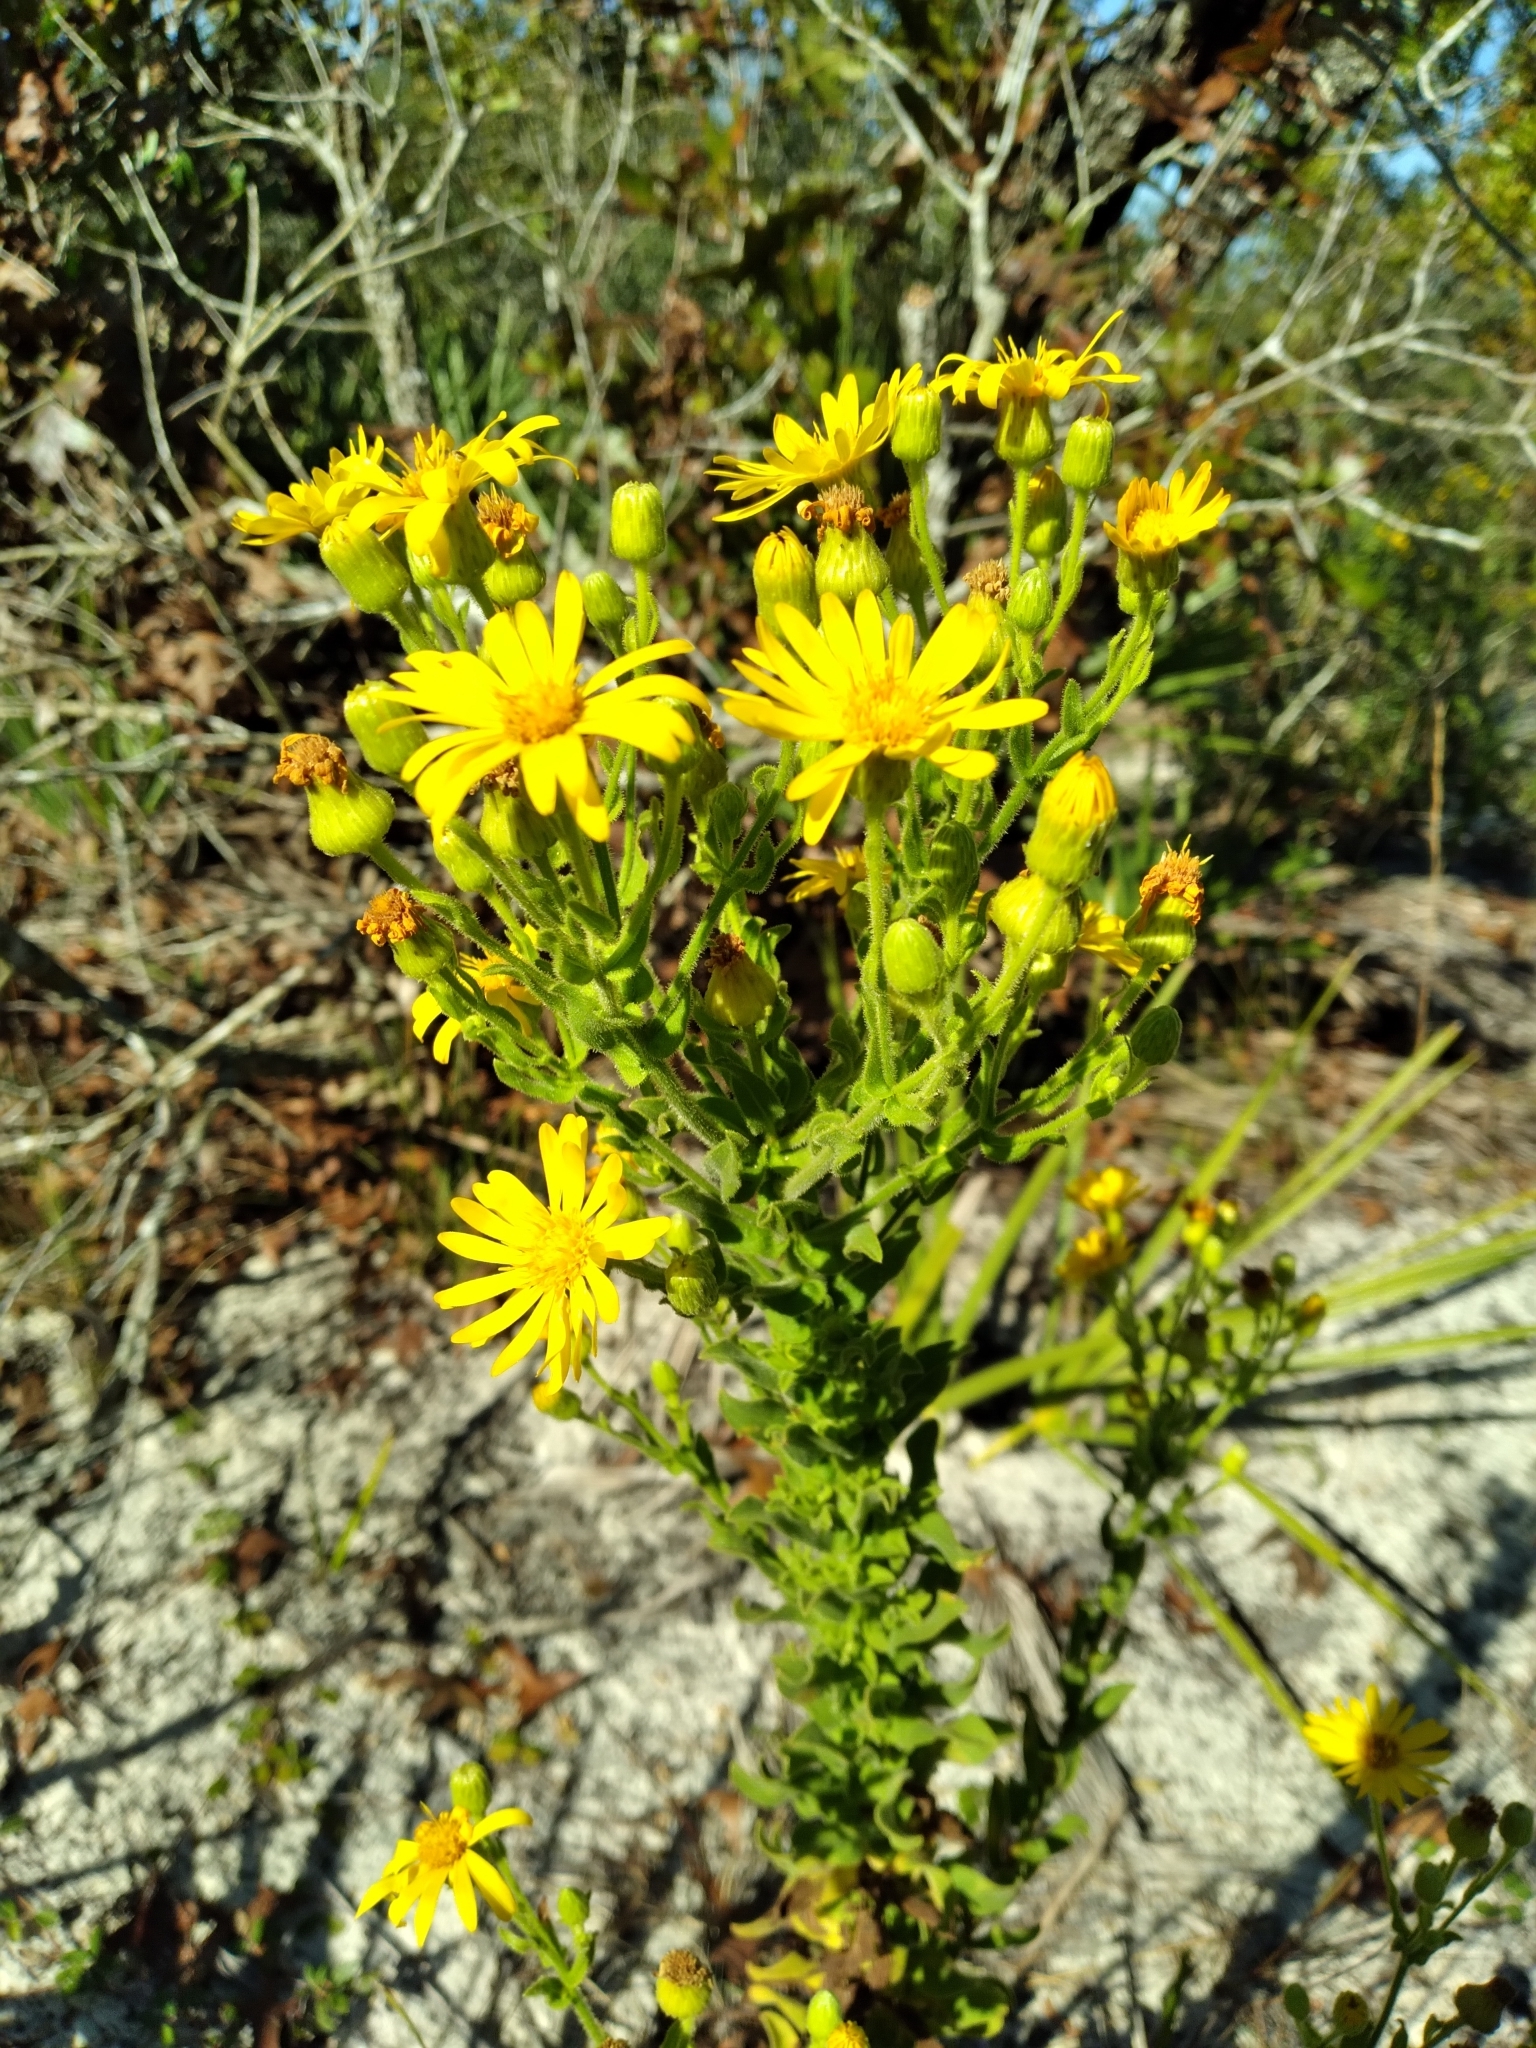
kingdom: Plantae
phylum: Tracheophyta
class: Magnoliopsida
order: Asterales
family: Asteraceae
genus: Chrysopsis
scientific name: Chrysopsis delaneyi
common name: Delaney's goldenaster
